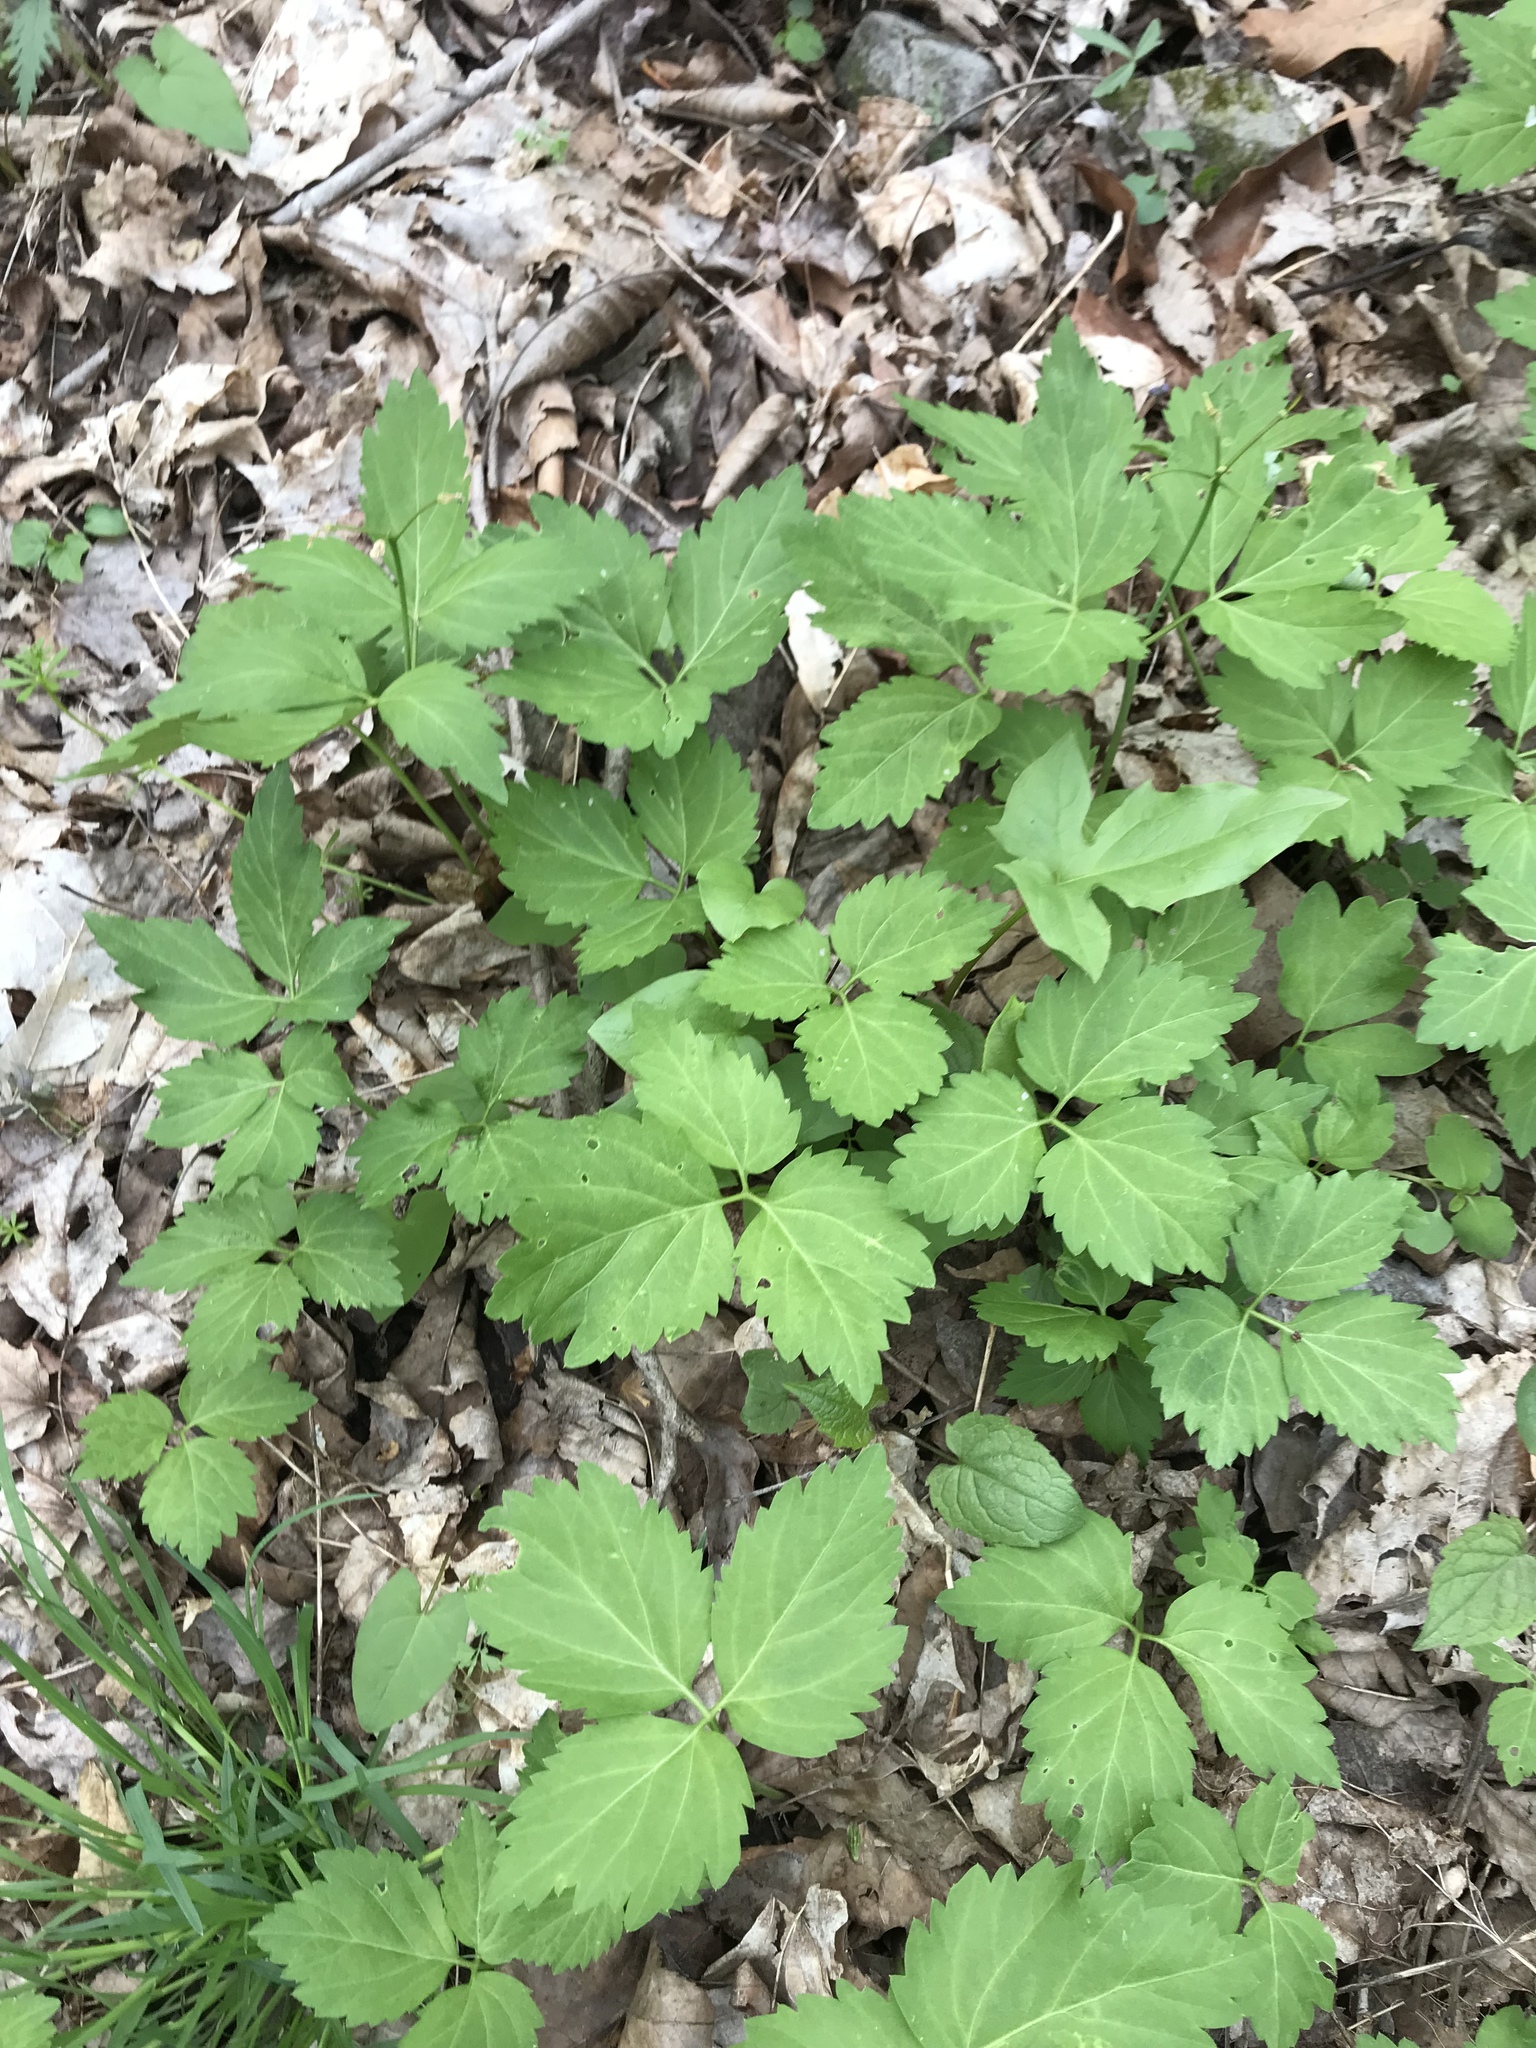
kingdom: Plantae
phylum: Tracheophyta
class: Magnoliopsida
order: Brassicales
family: Brassicaceae
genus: Cardamine
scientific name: Cardamine diphylla
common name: Broad-leaved toothwort
